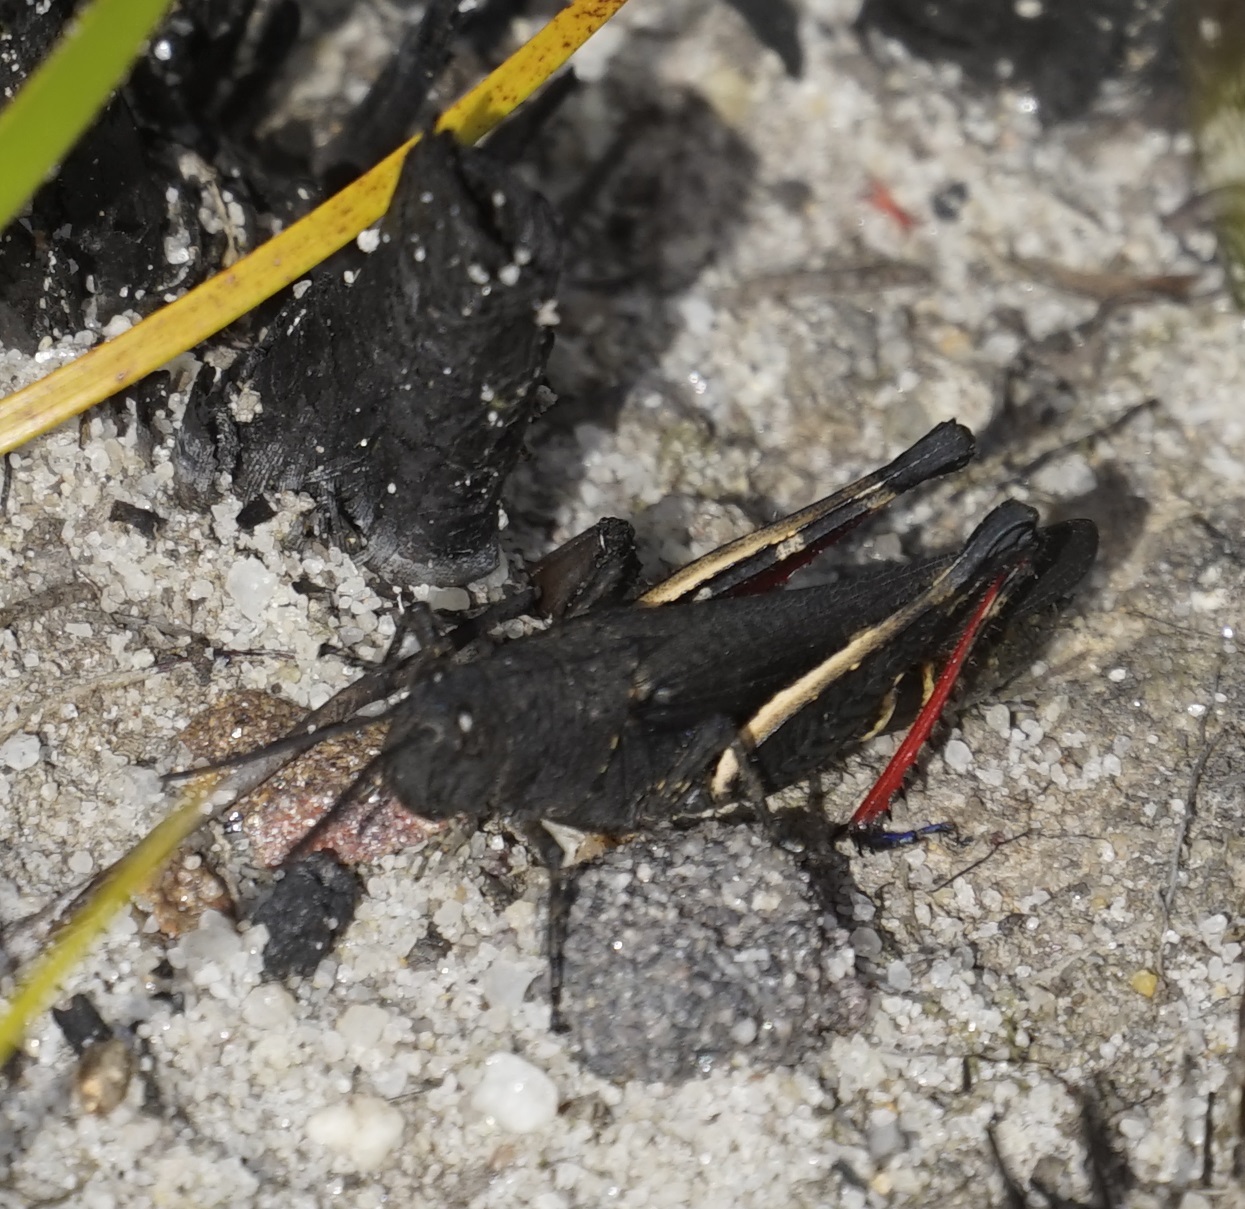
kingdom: Animalia
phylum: Arthropoda
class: Insecta
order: Orthoptera
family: Acrididae
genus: Cirphula
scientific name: Cirphula pyrrhocnemis
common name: Variable cirphula
